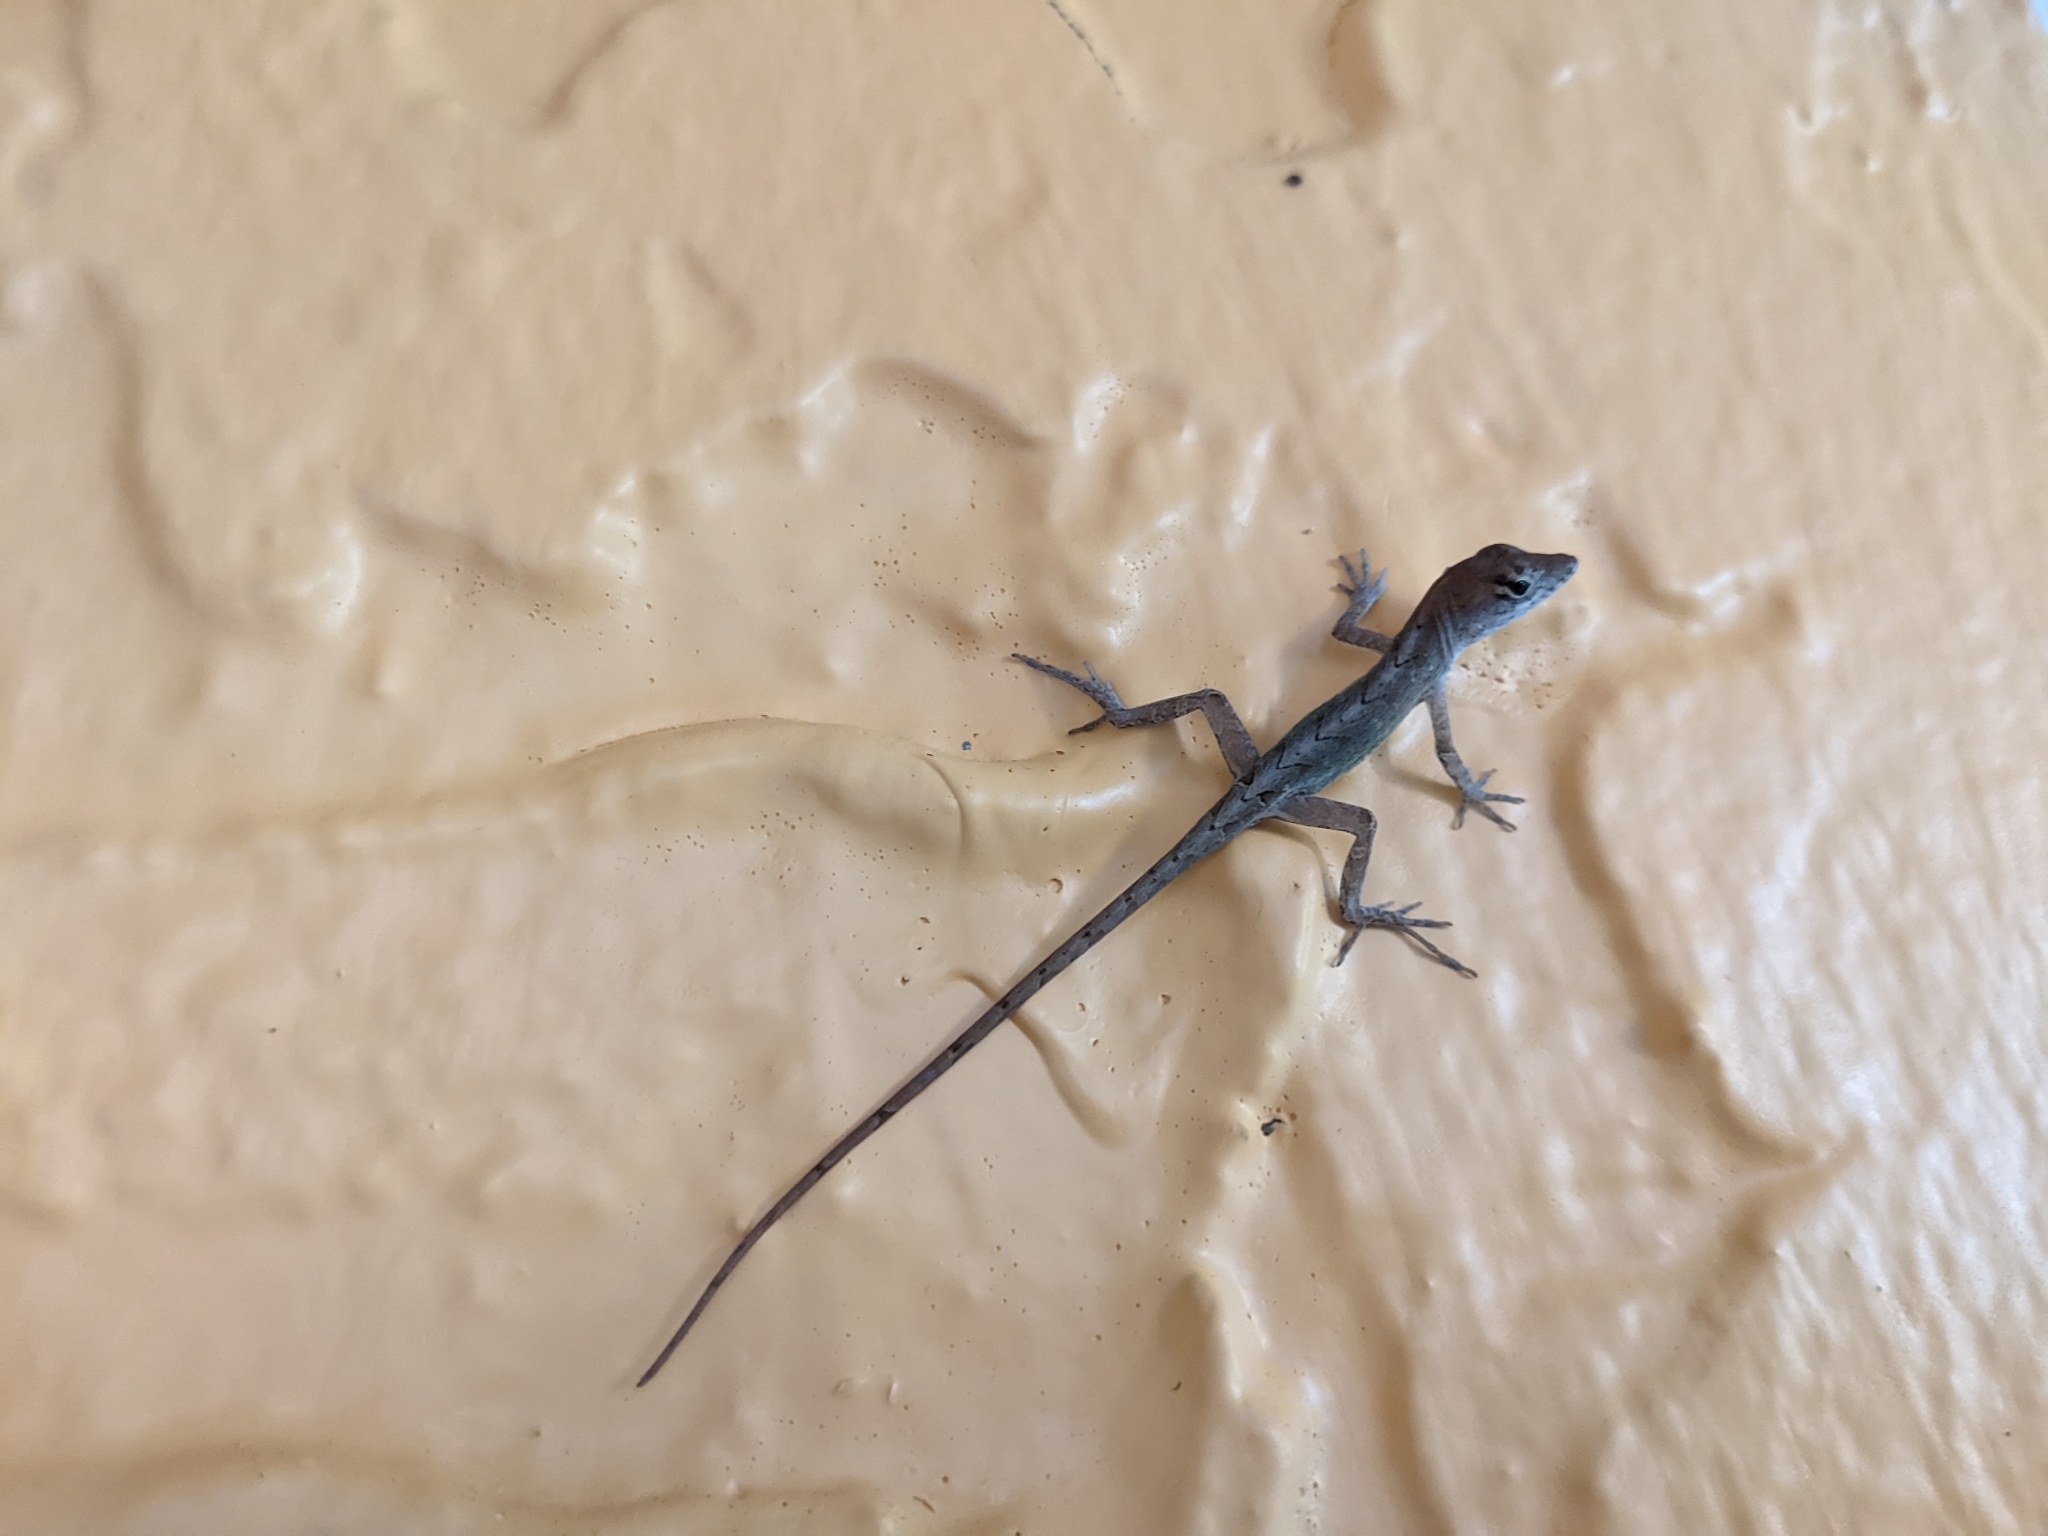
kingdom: Animalia
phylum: Chordata
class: Squamata
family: Dactyloidae
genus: Anolis
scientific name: Anolis sagrei
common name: Brown anole
